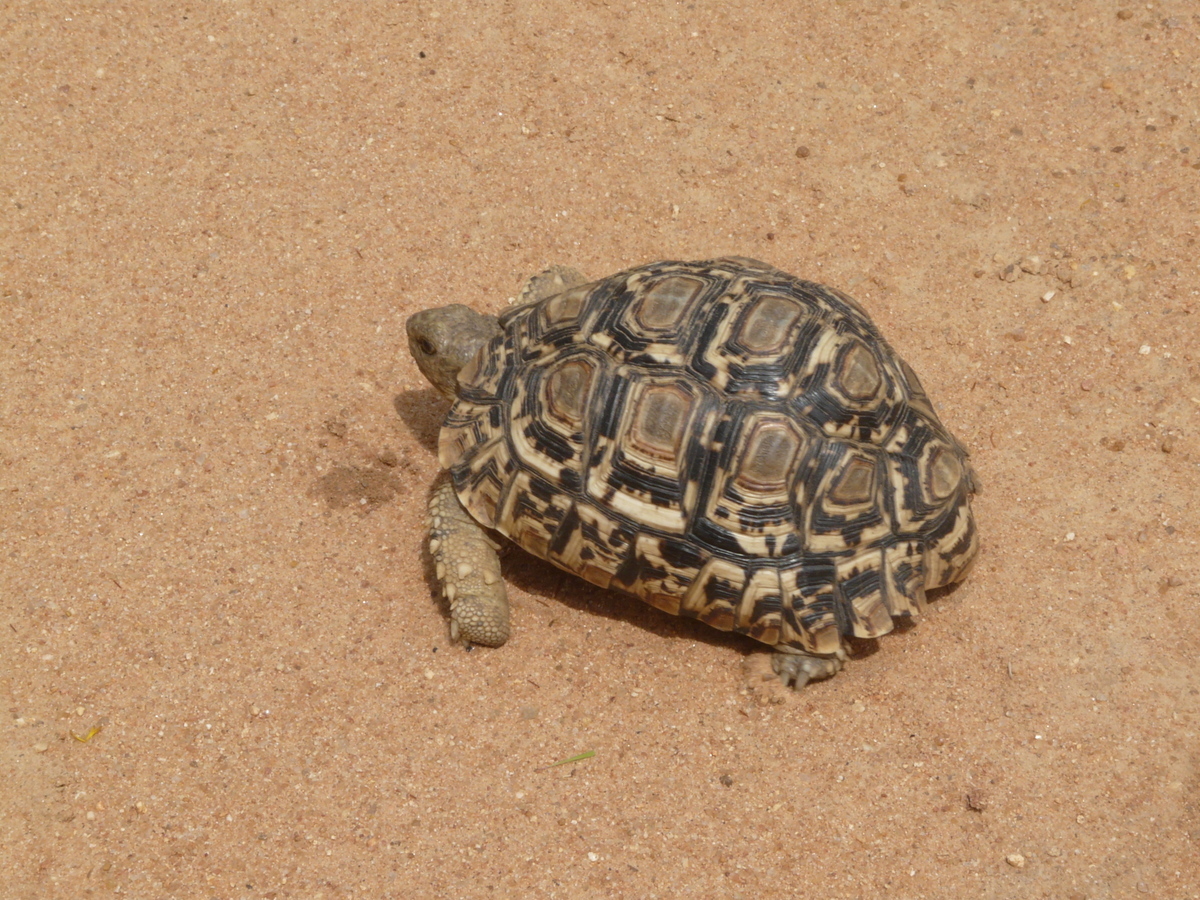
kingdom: Animalia
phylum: Chordata
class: Testudines
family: Testudinidae
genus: Stigmochelys
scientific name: Stigmochelys pardalis
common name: Leopard tortoise
